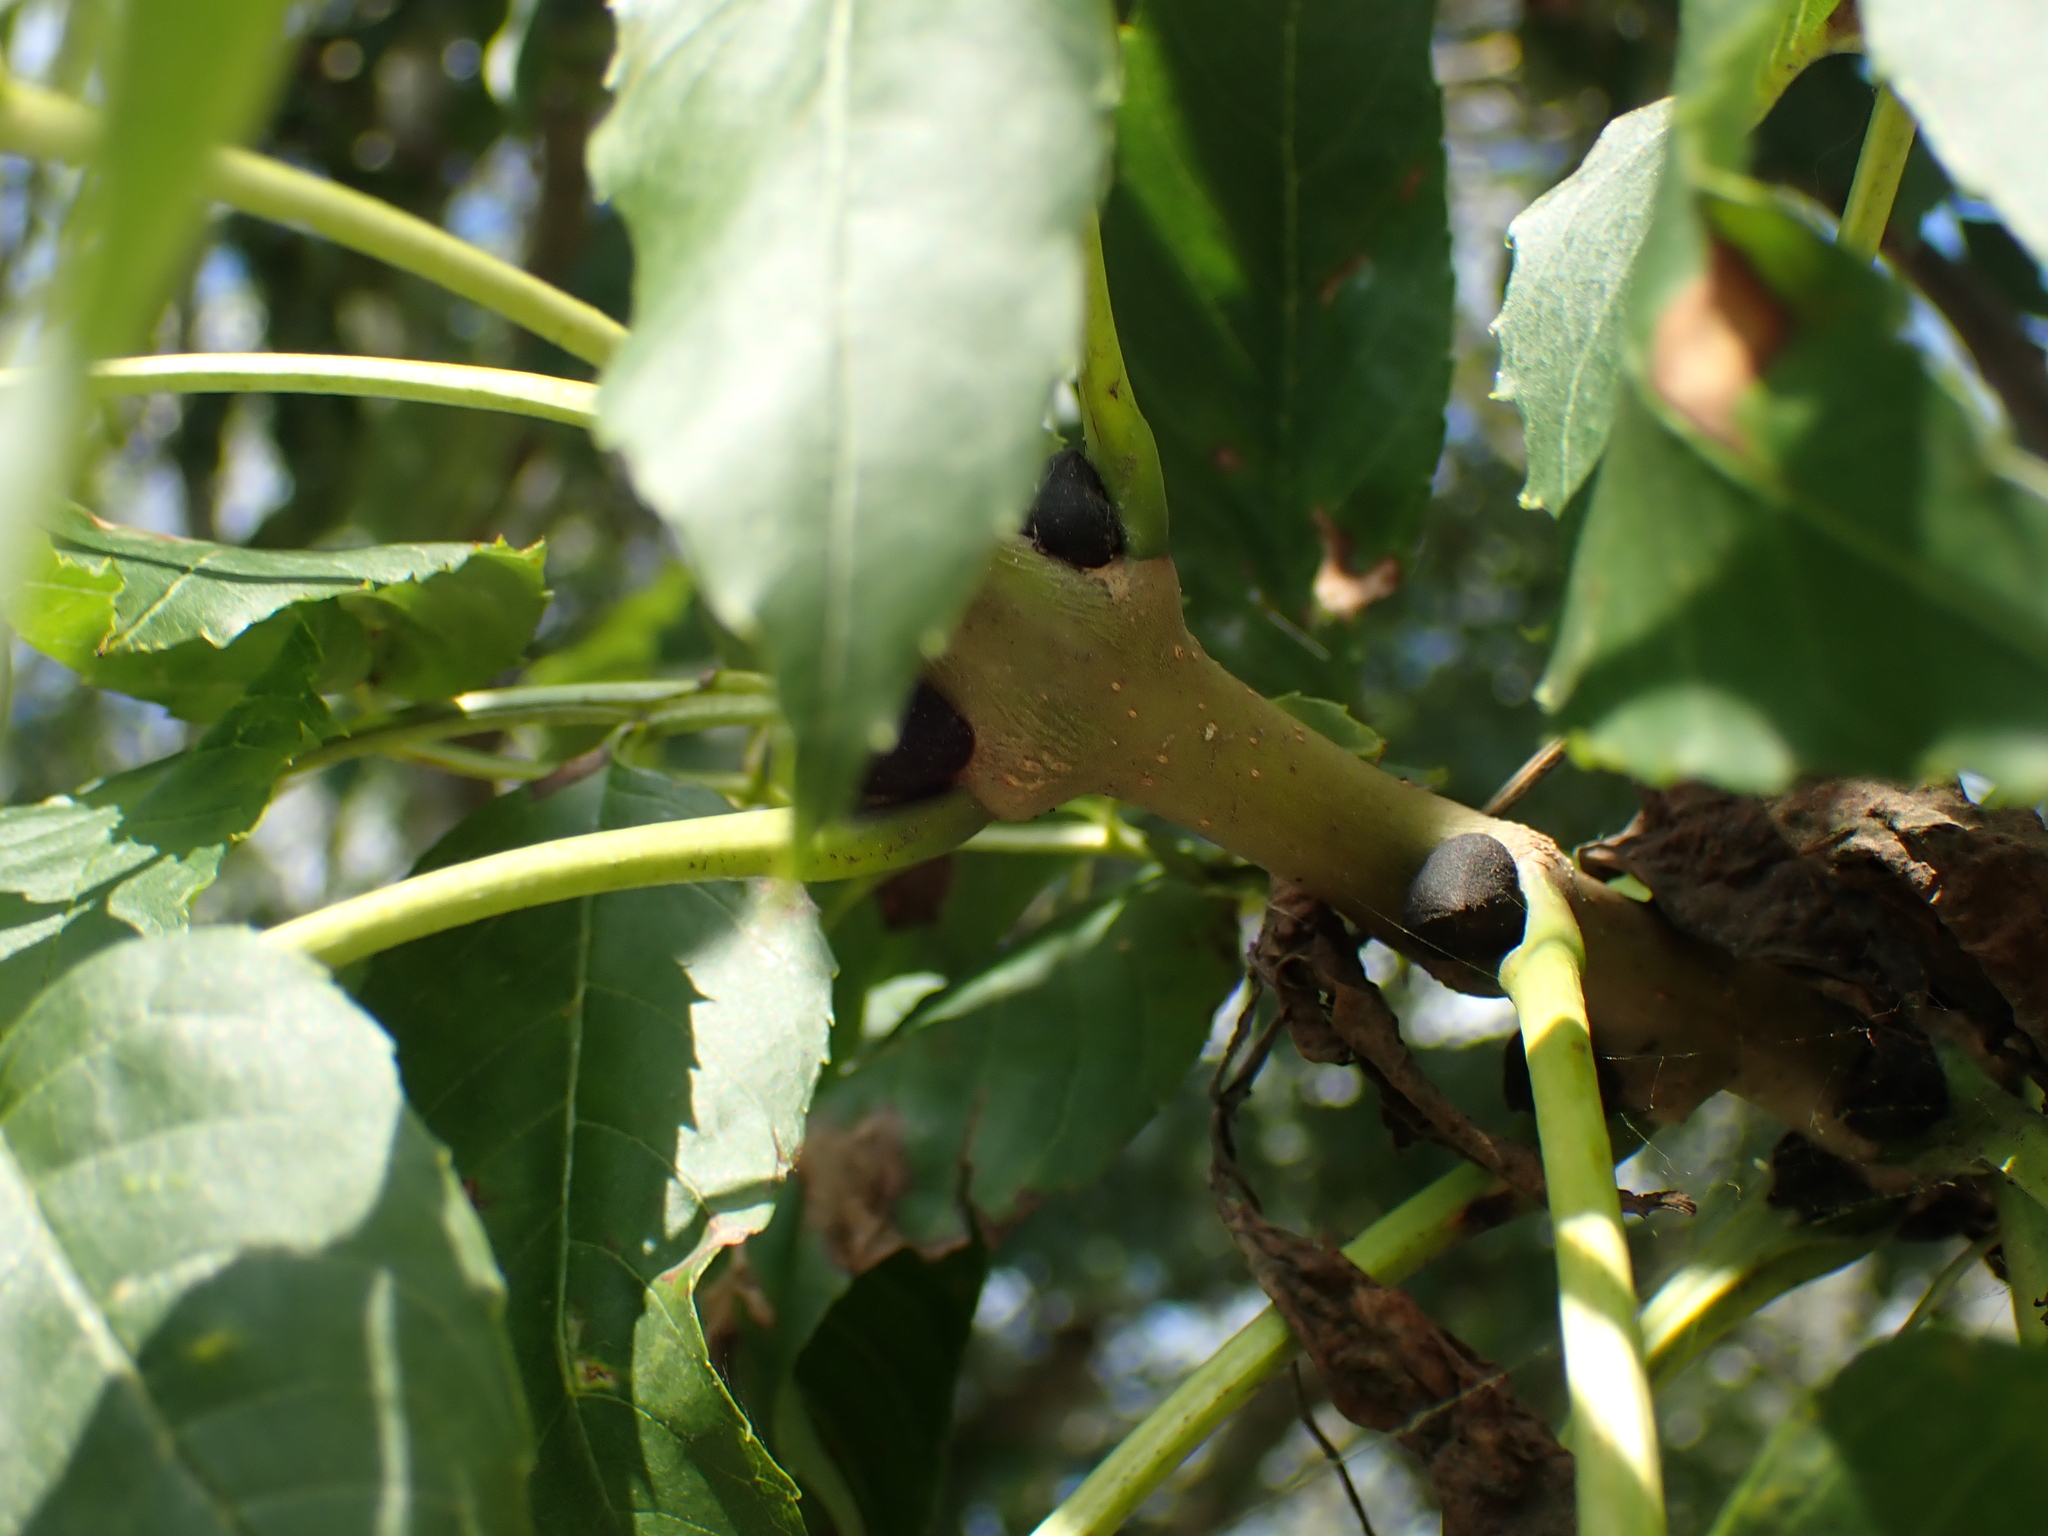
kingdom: Plantae
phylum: Tracheophyta
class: Magnoliopsida
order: Lamiales
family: Oleaceae
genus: Fraxinus
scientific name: Fraxinus excelsior
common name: European ash
